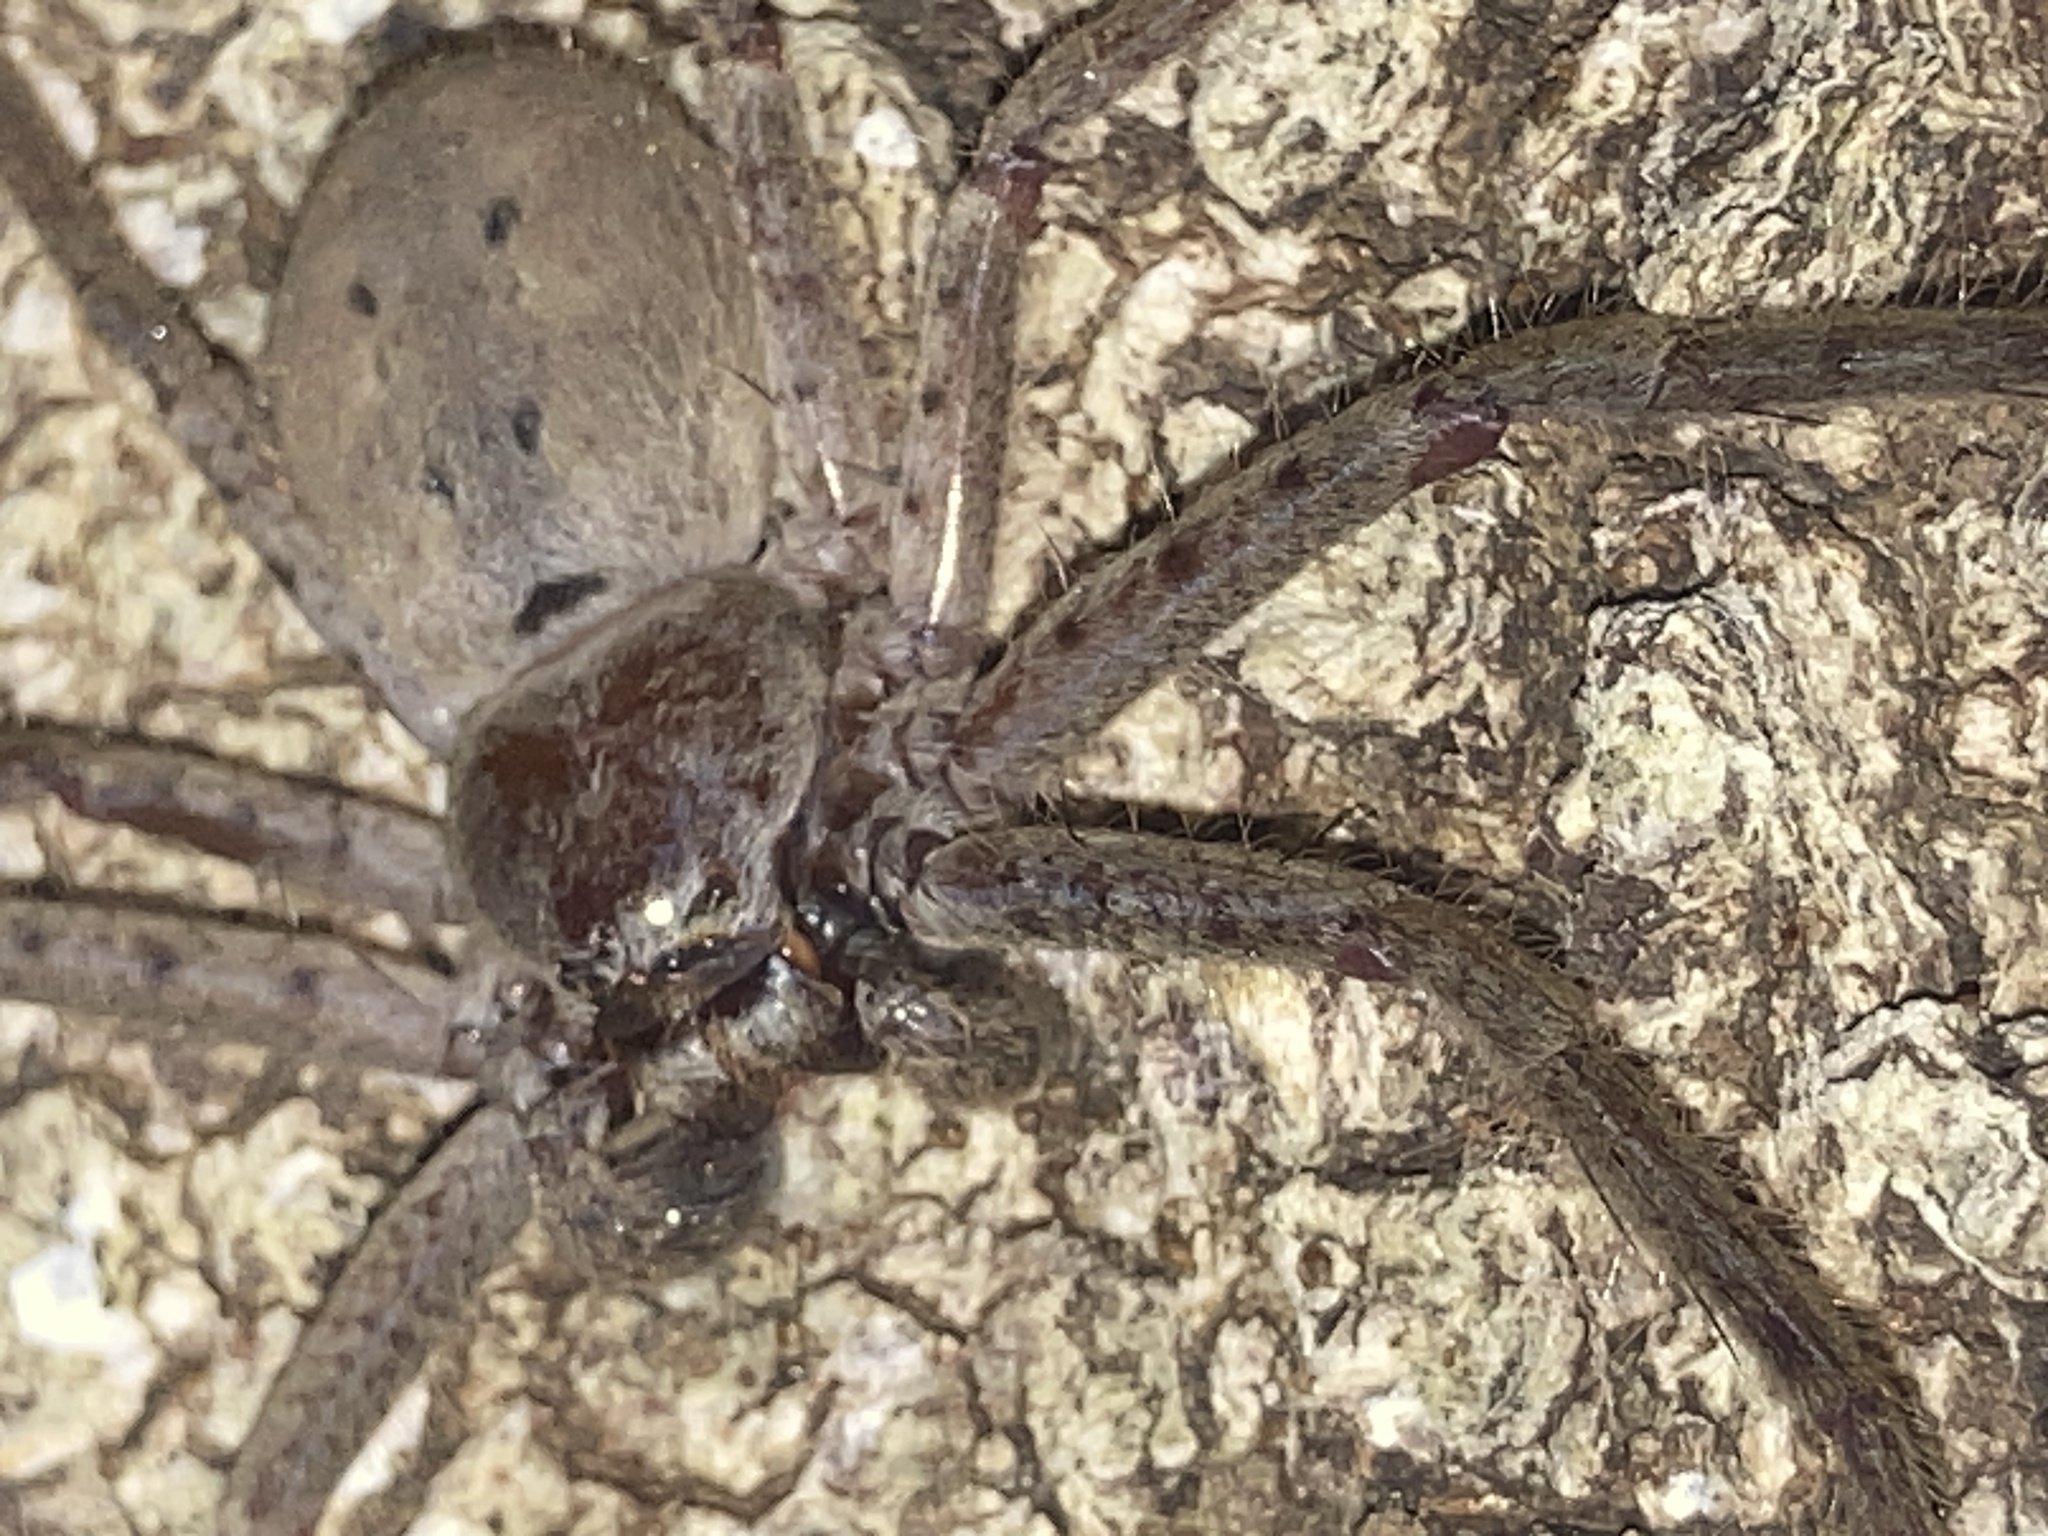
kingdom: Animalia
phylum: Arthropoda
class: Arachnida
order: Araneae
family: Sparassidae
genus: Isopeda
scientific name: Isopeda villosa
